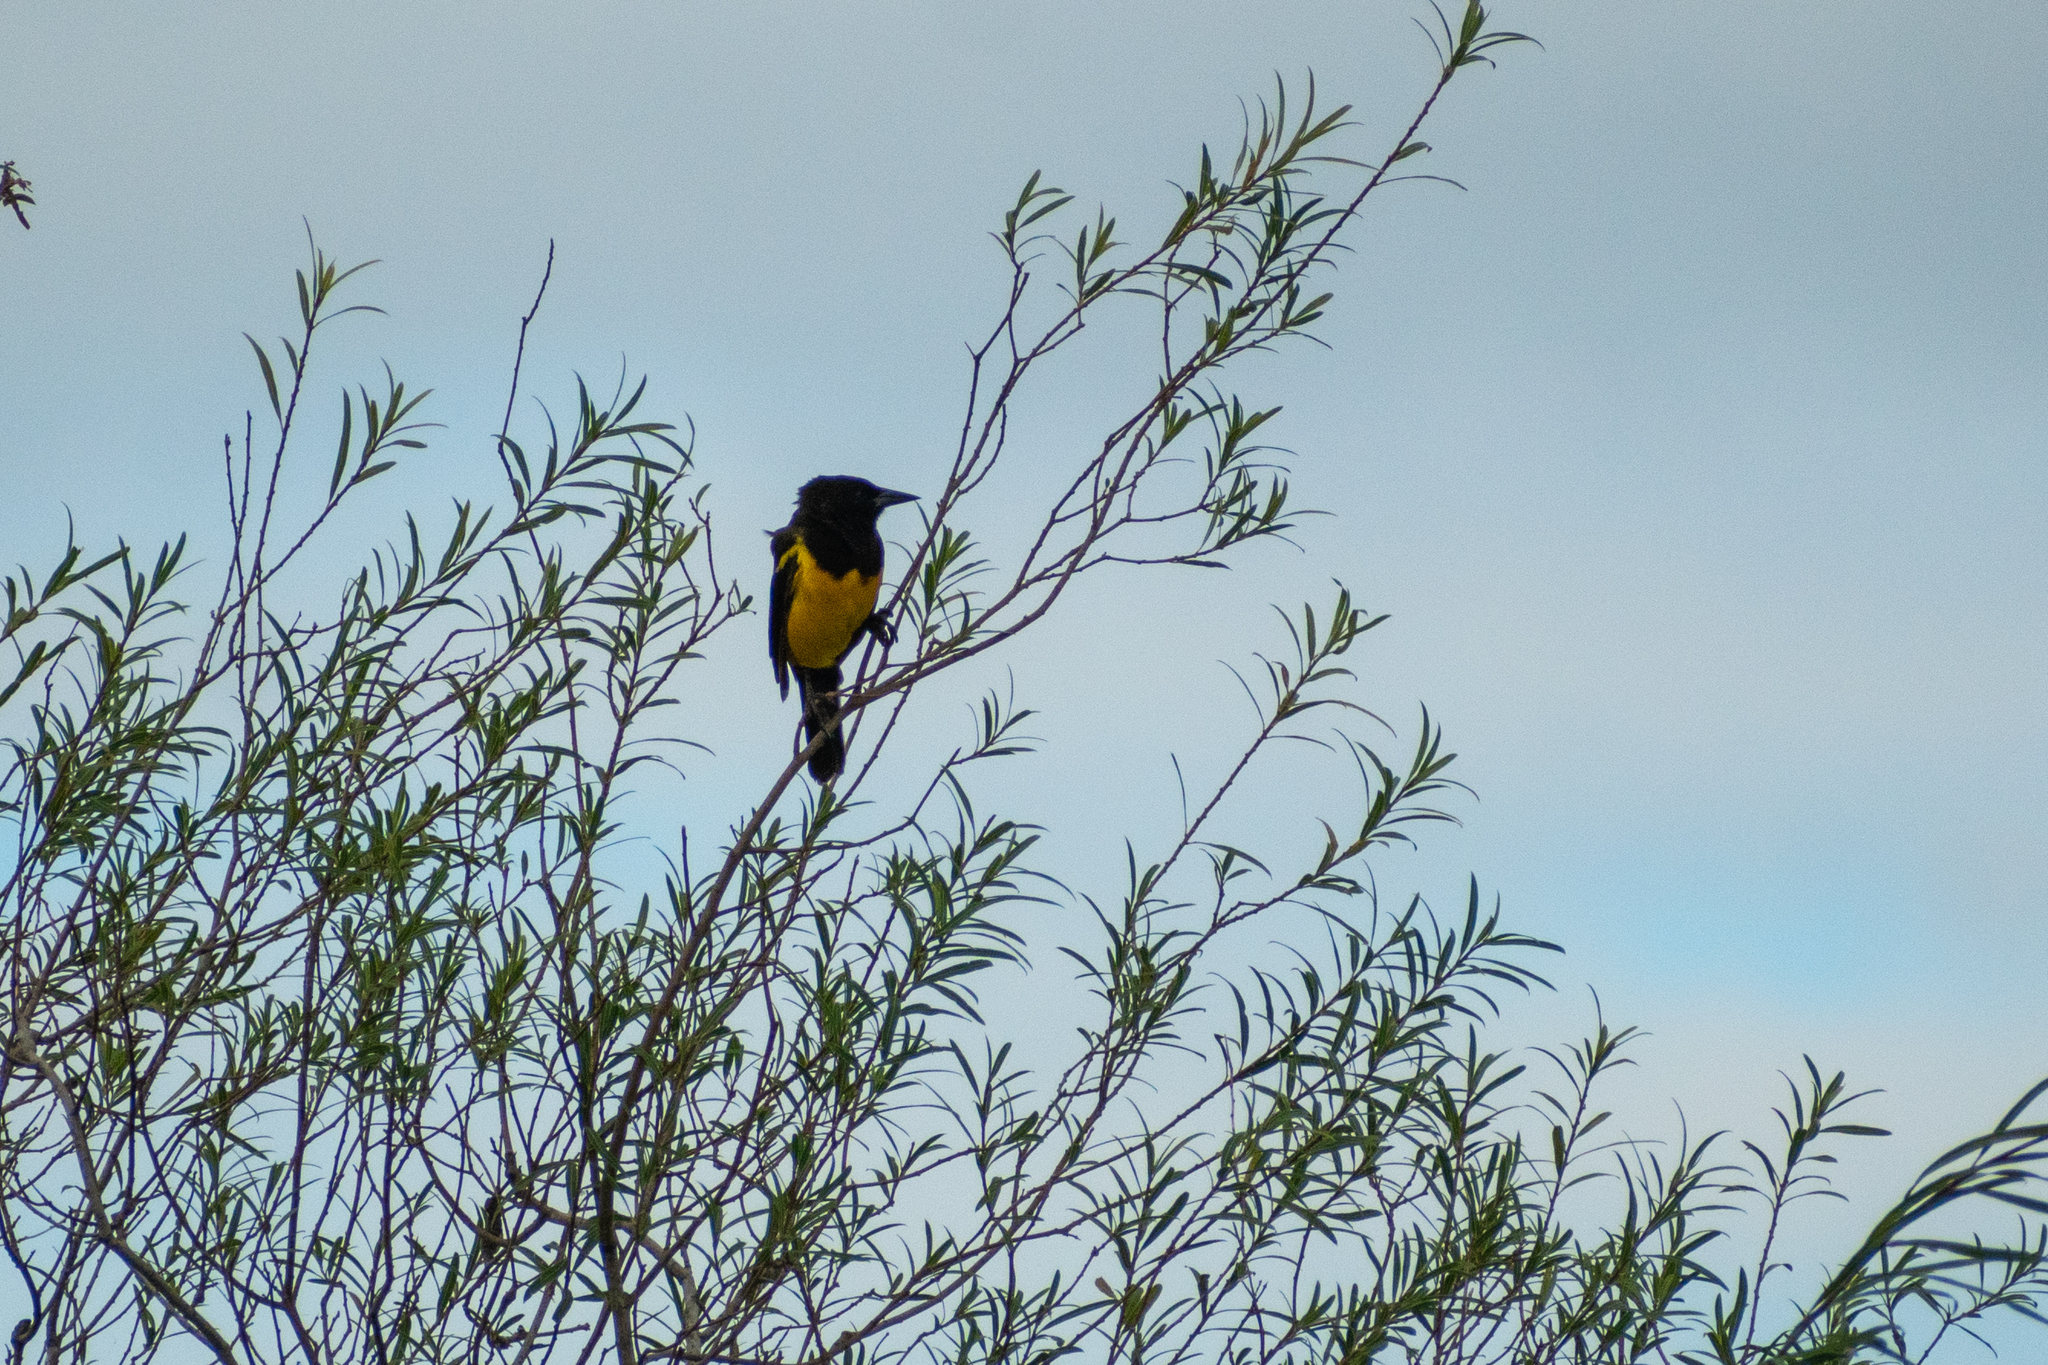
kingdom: Animalia
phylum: Chordata
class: Aves
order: Passeriformes
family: Icteridae
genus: Pseudoleistes
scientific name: Pseudoleistes guirahuro
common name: Yellow-rumped marshbird
